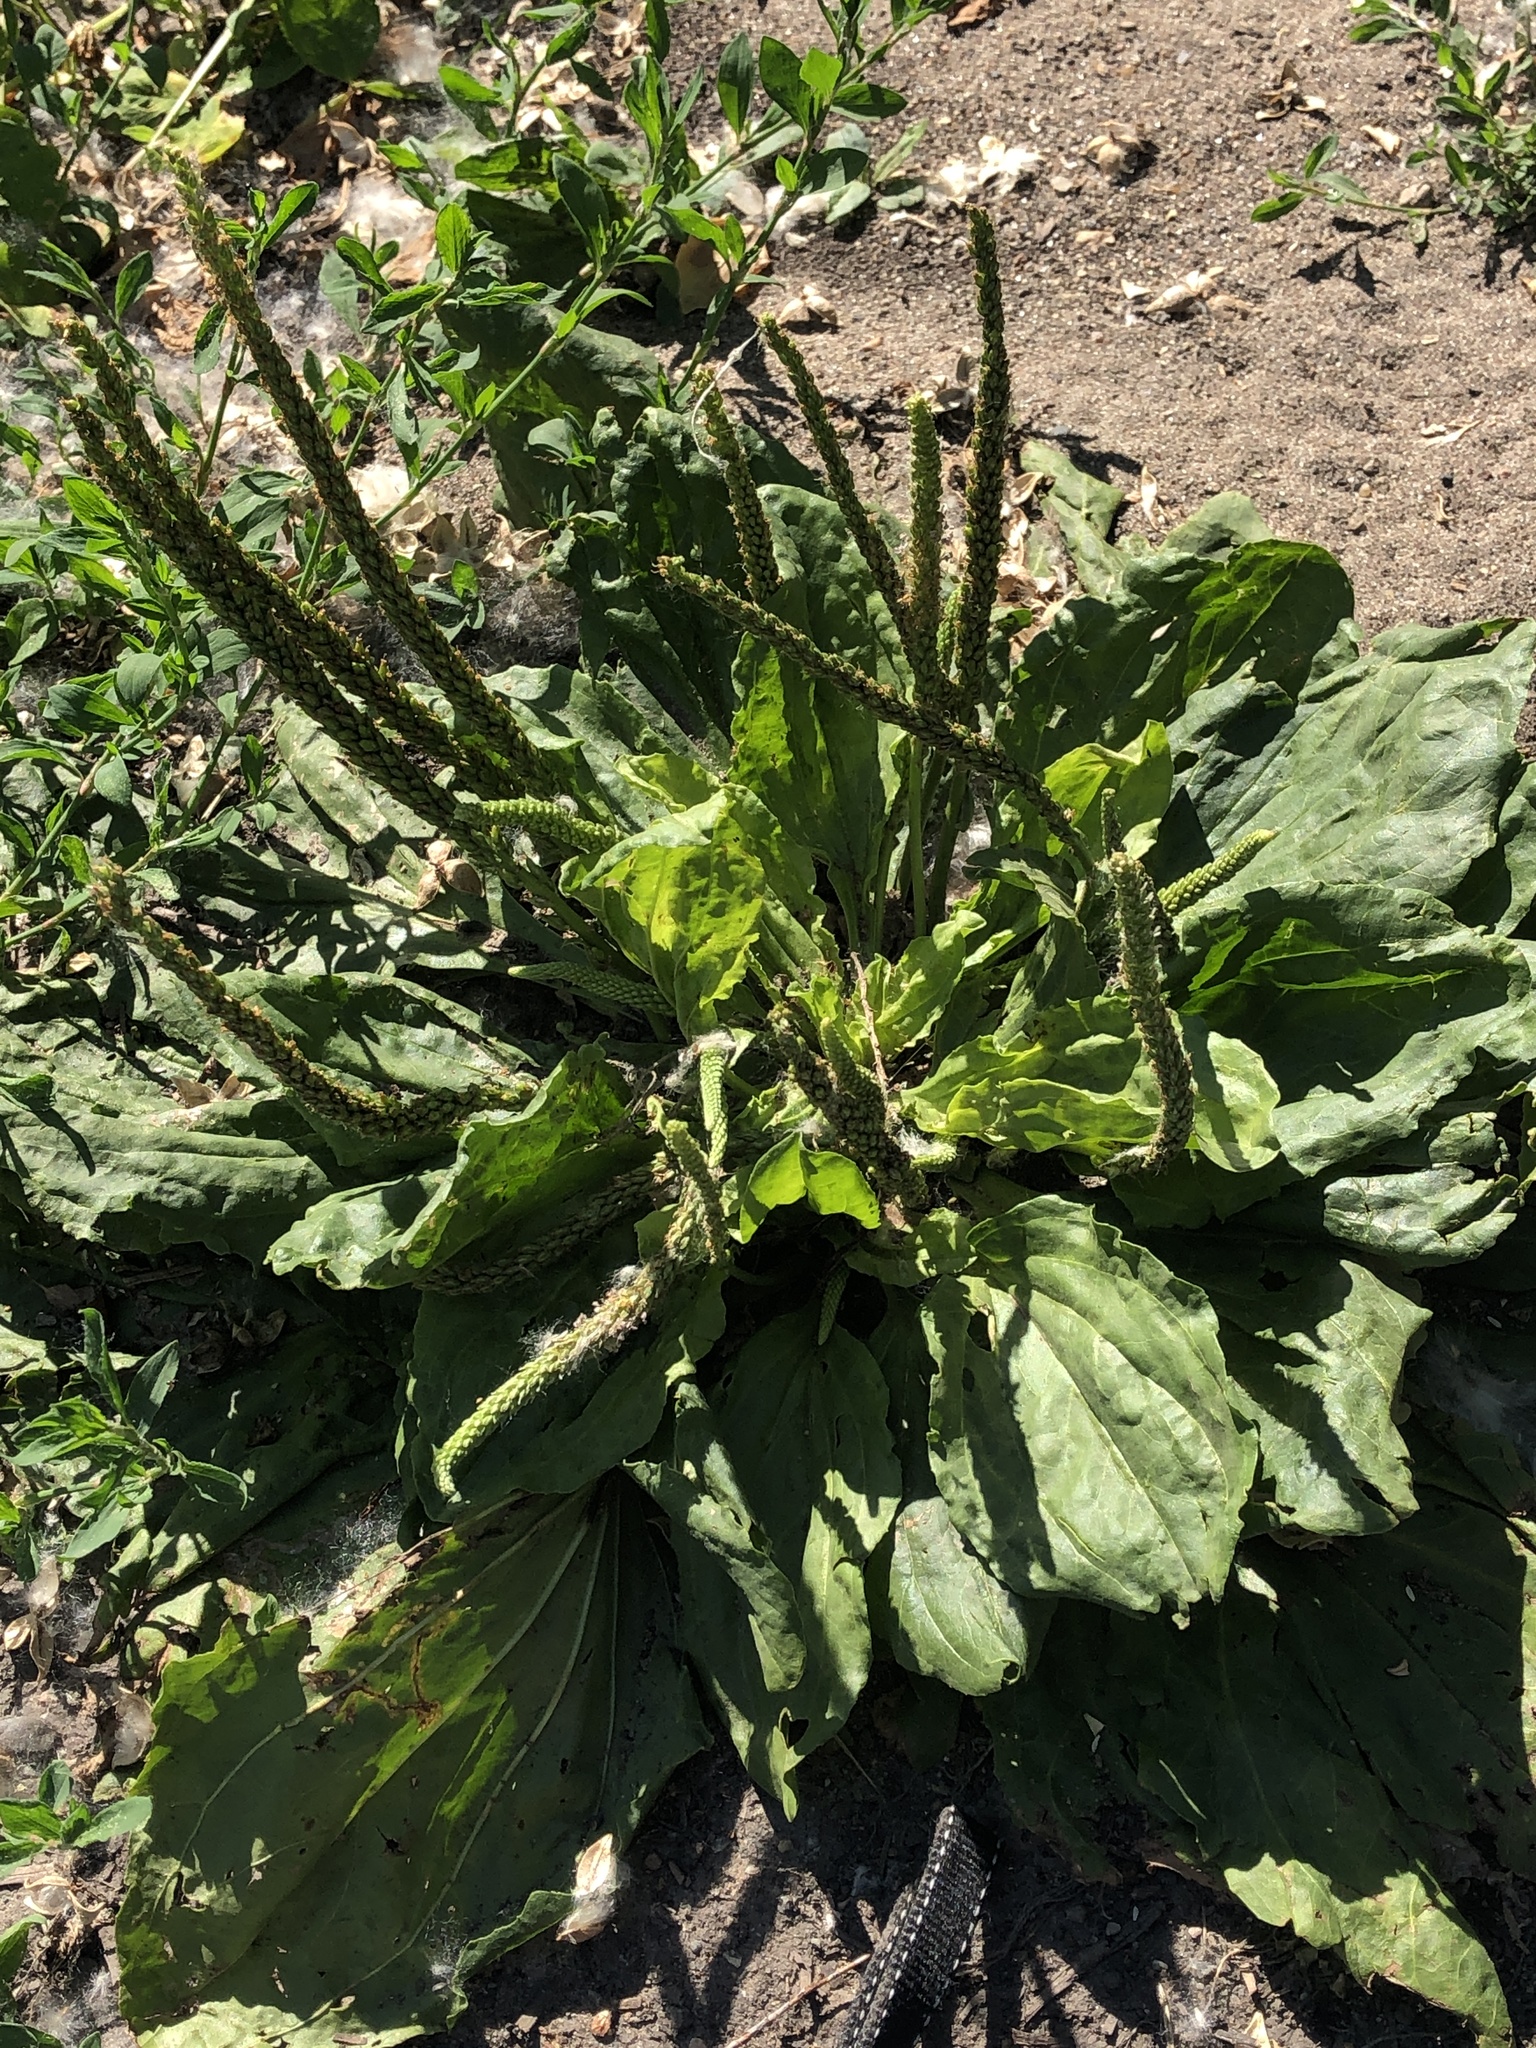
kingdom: Plantae
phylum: Tracheophyta
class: Magnoliopsida
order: Lamiales
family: Plantaginaceae
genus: Plantago
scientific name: Plantago major
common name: Common plantain
